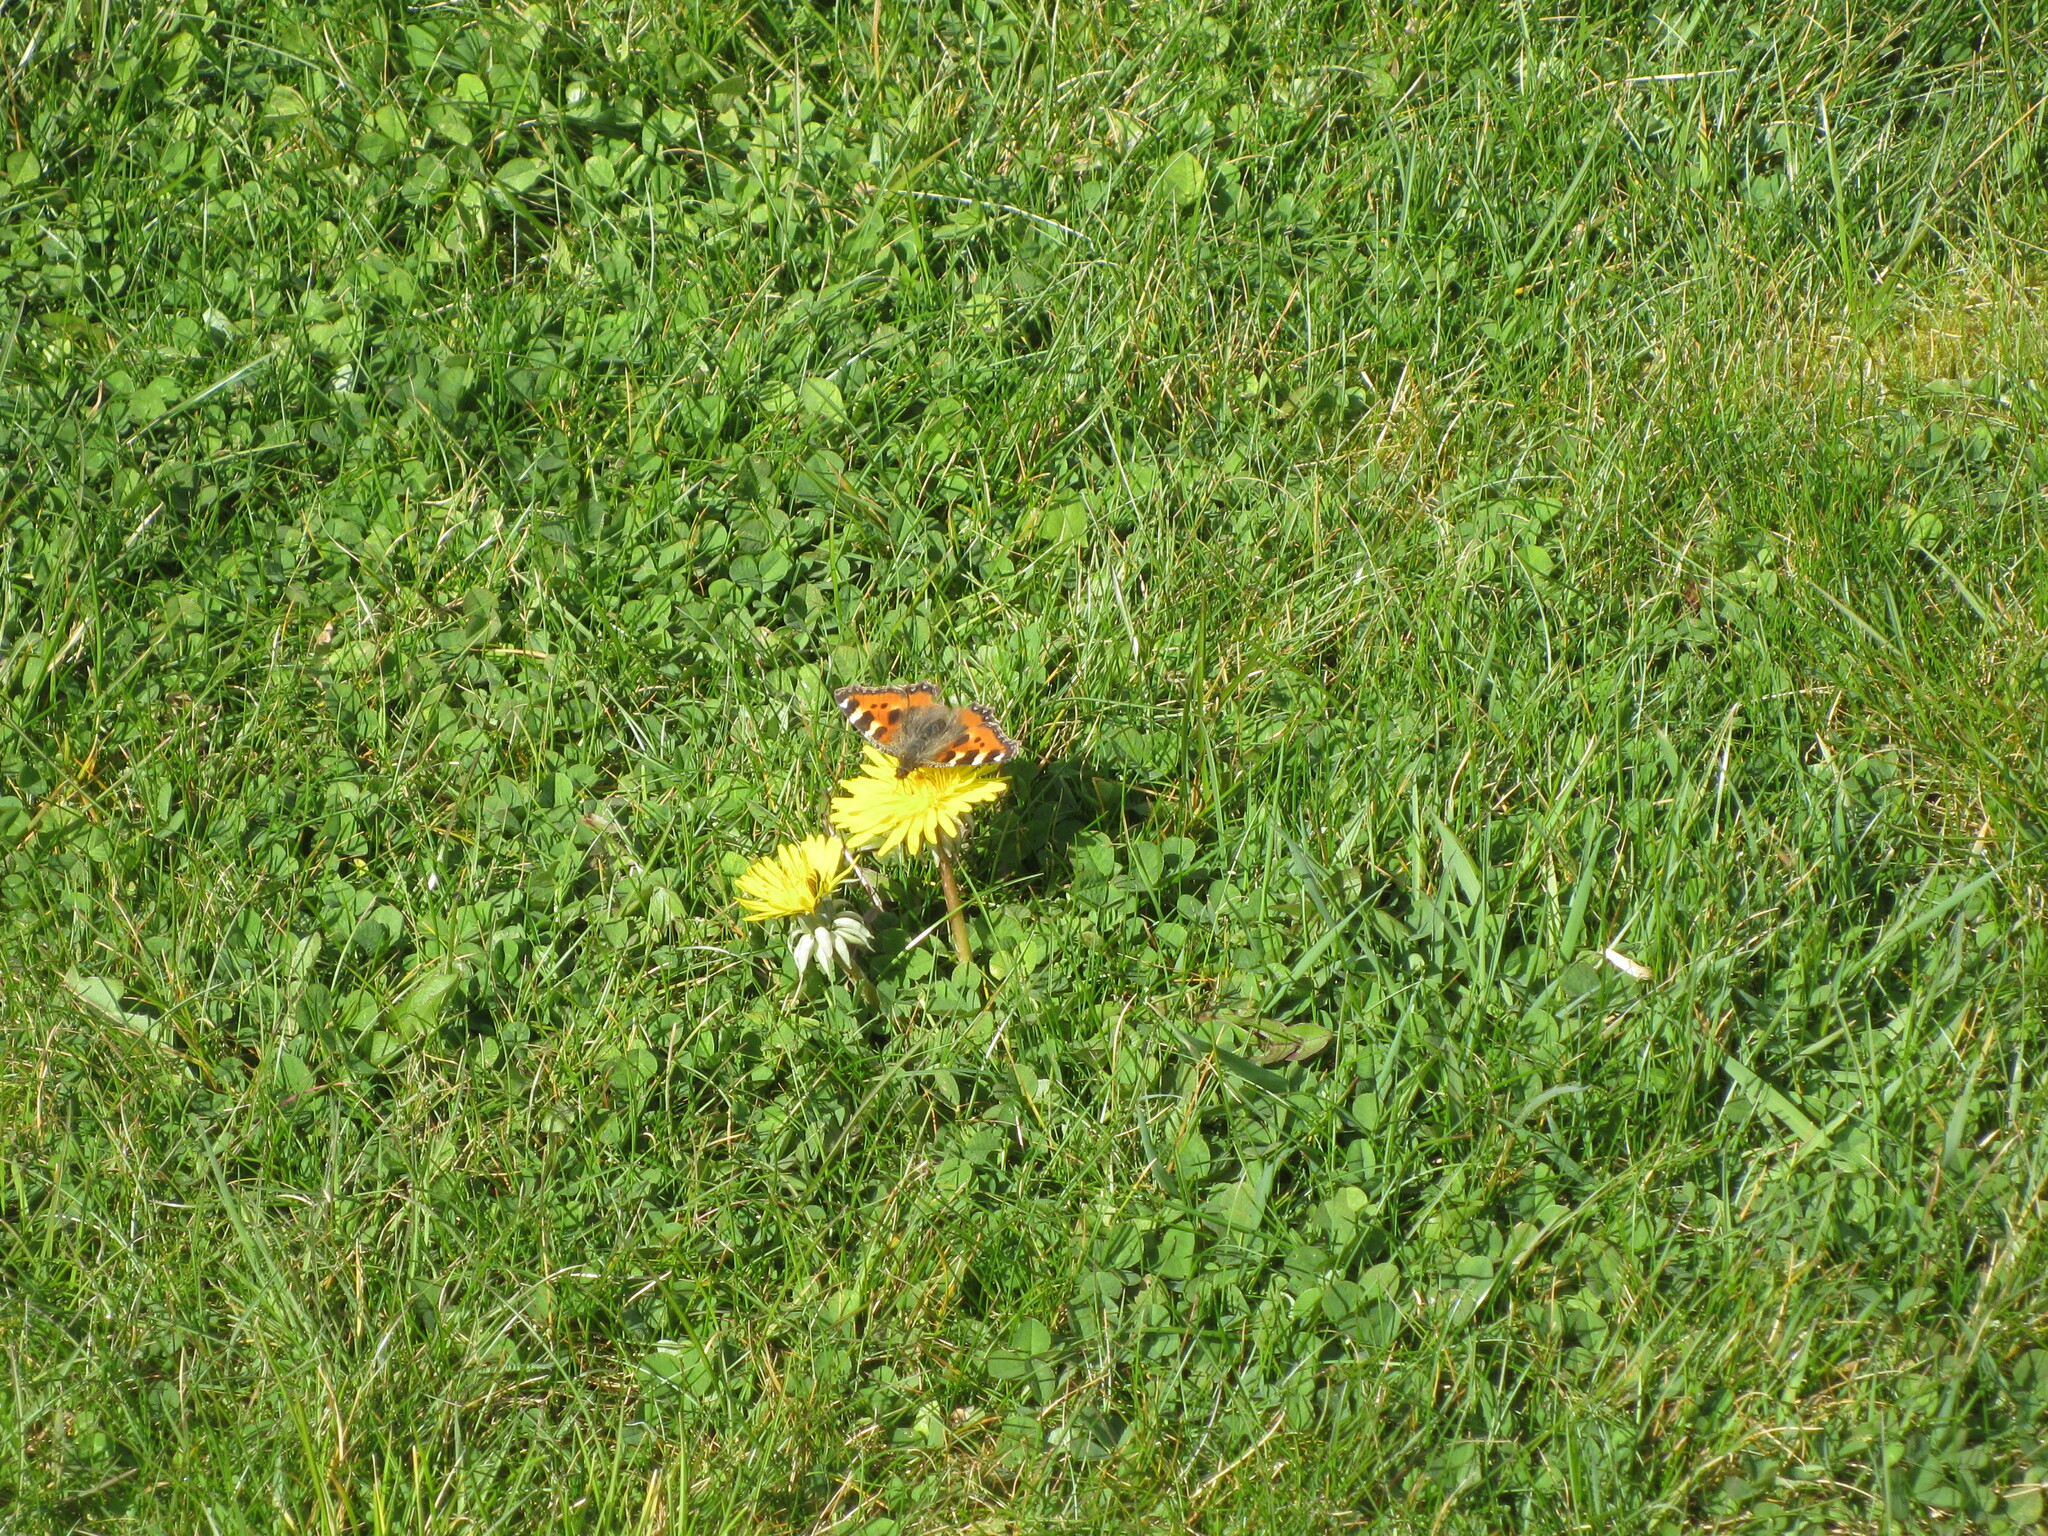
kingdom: Animalia
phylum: Arthropoda
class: Insecta
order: Lepidoptera
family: Nymphalidae
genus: Aglais
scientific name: Aglais urticae
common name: Small tortoiseshell
